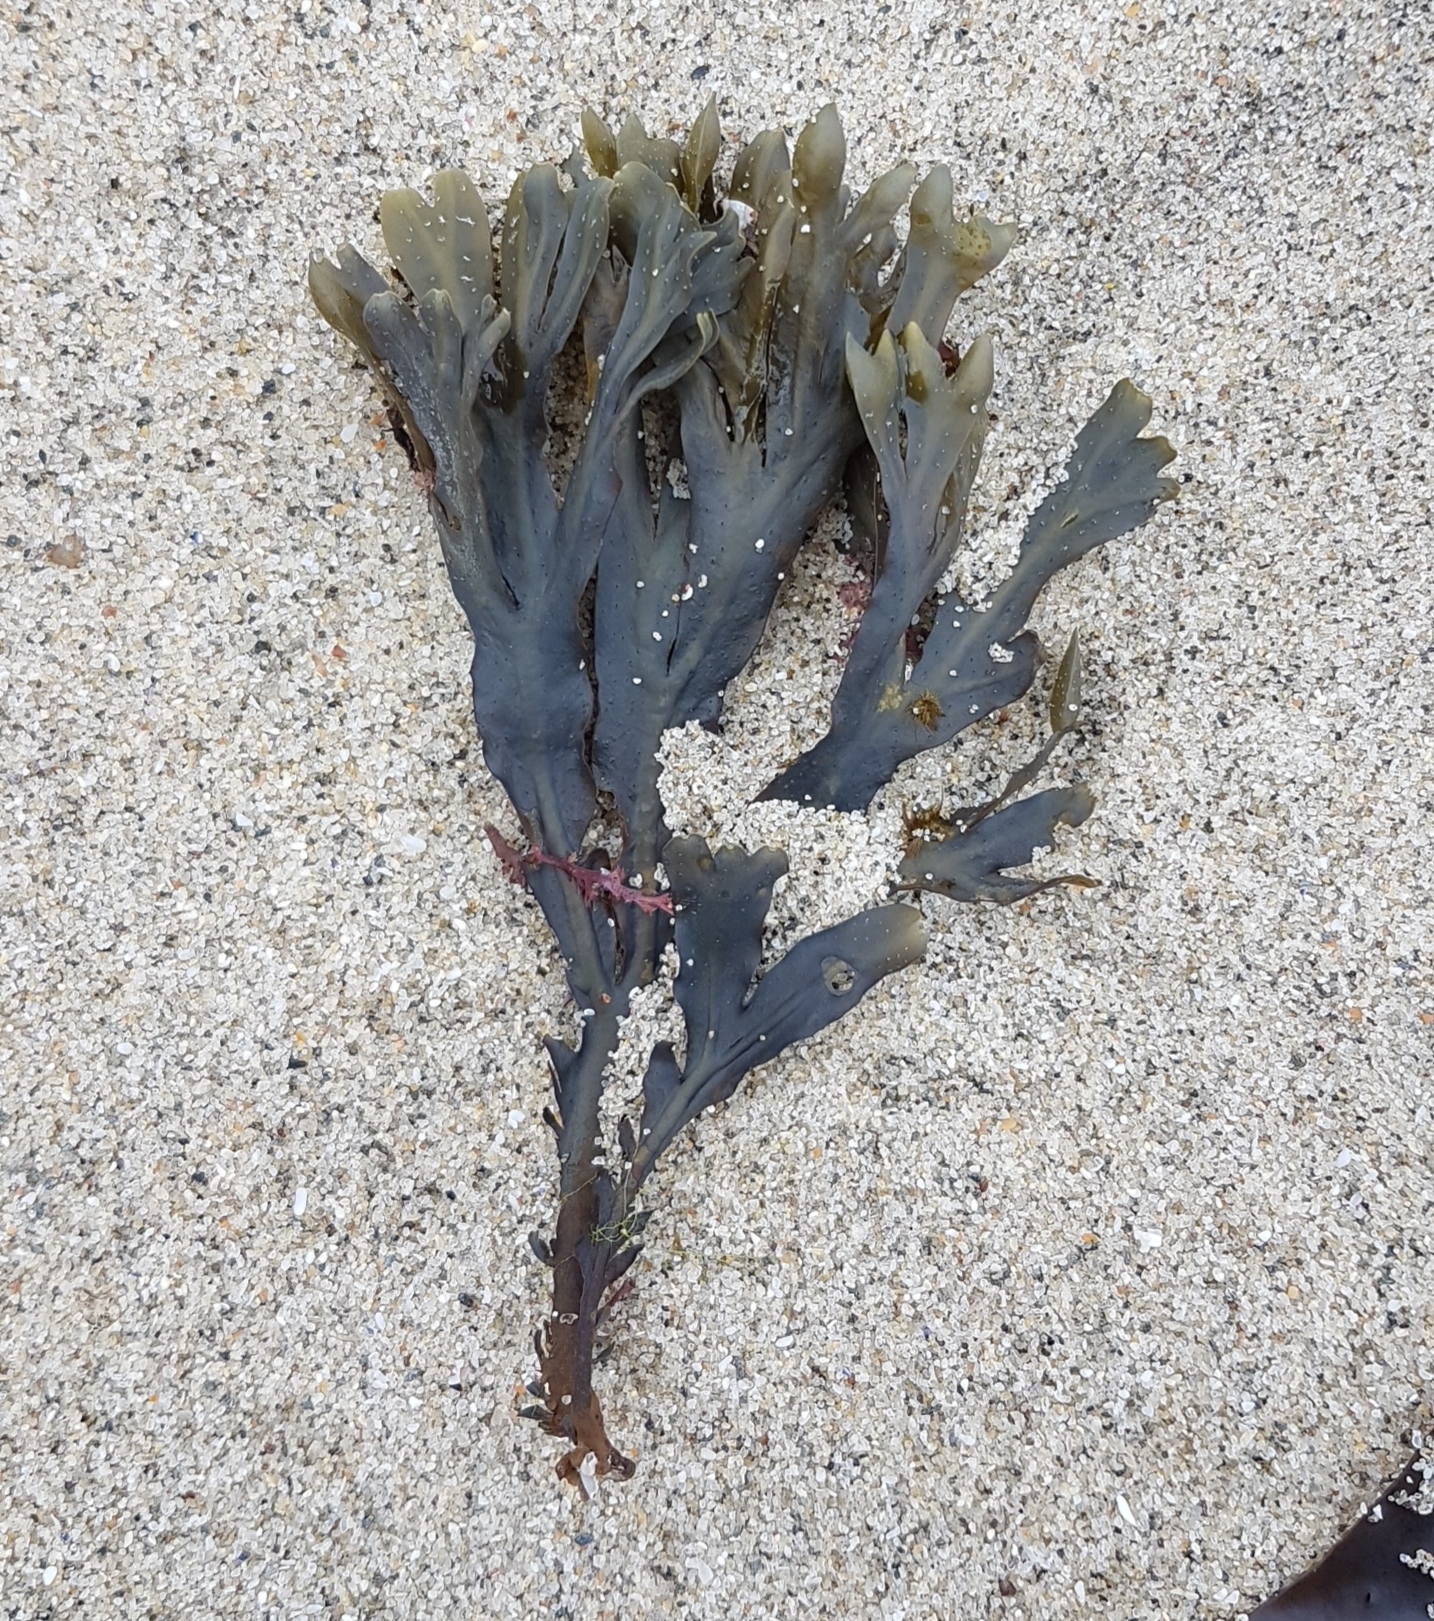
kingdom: Chromista
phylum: Ochrophyta
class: Phaeophyceae
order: Fucales
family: Fucaceae
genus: Fucus
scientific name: Fucus spiralis
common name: Spiral wrack
